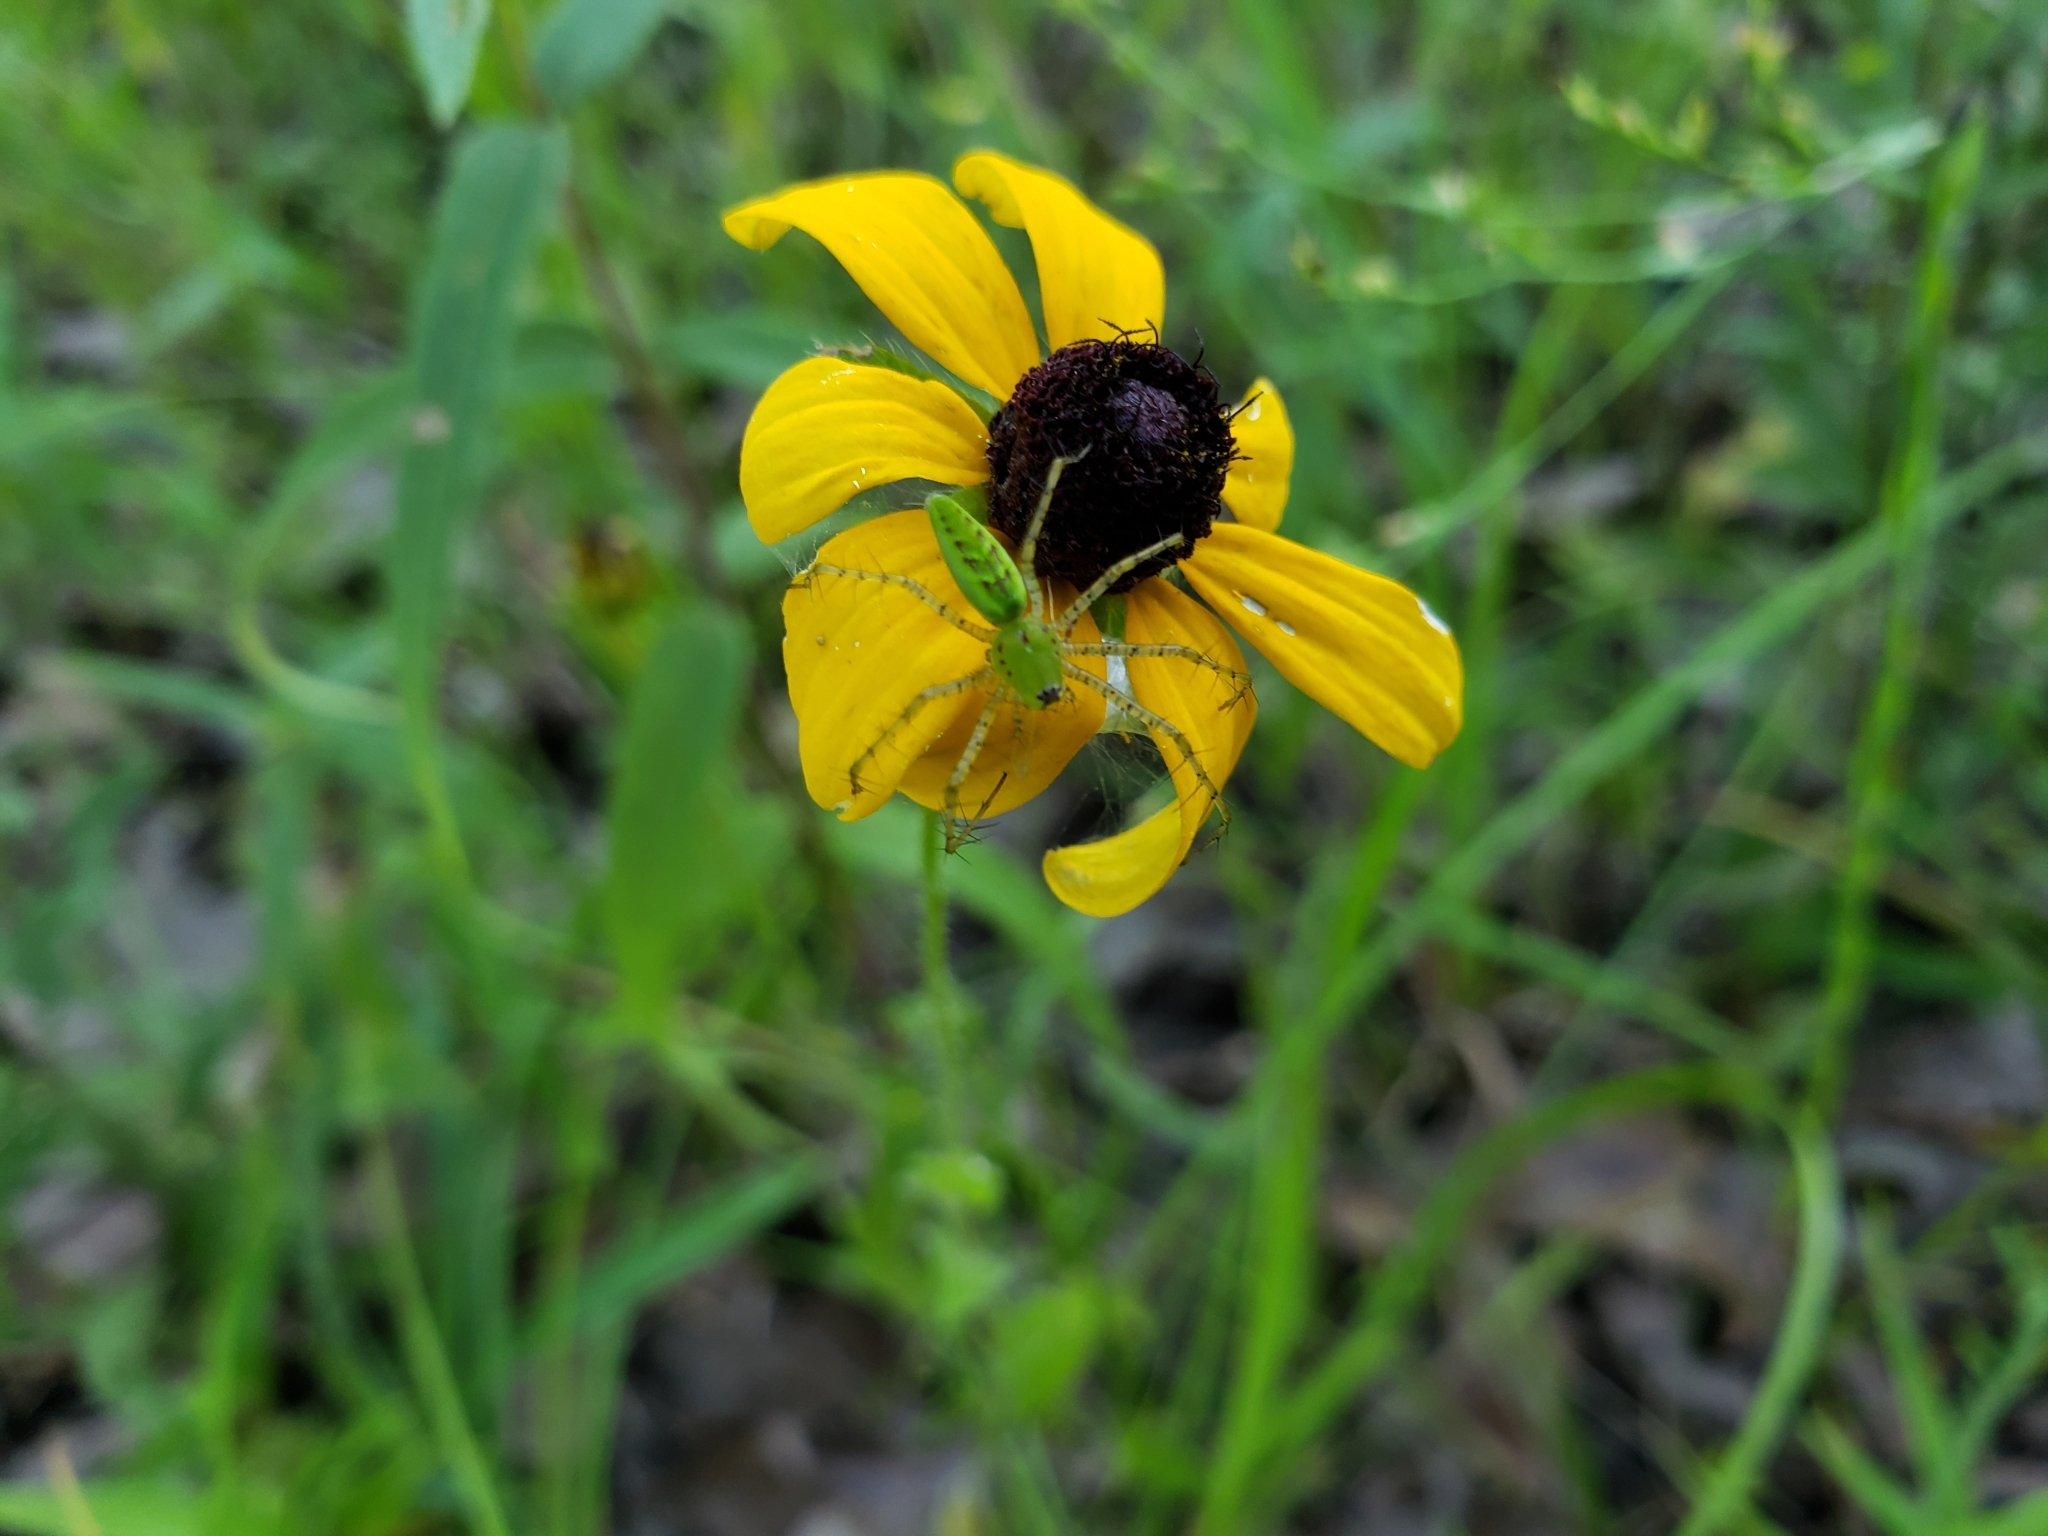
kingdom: Animalia
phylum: Arthropoda
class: Arachnida
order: Araneae
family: Oxyopidae
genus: Peucetia
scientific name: Peucetia viridans
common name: Lynx spiders
